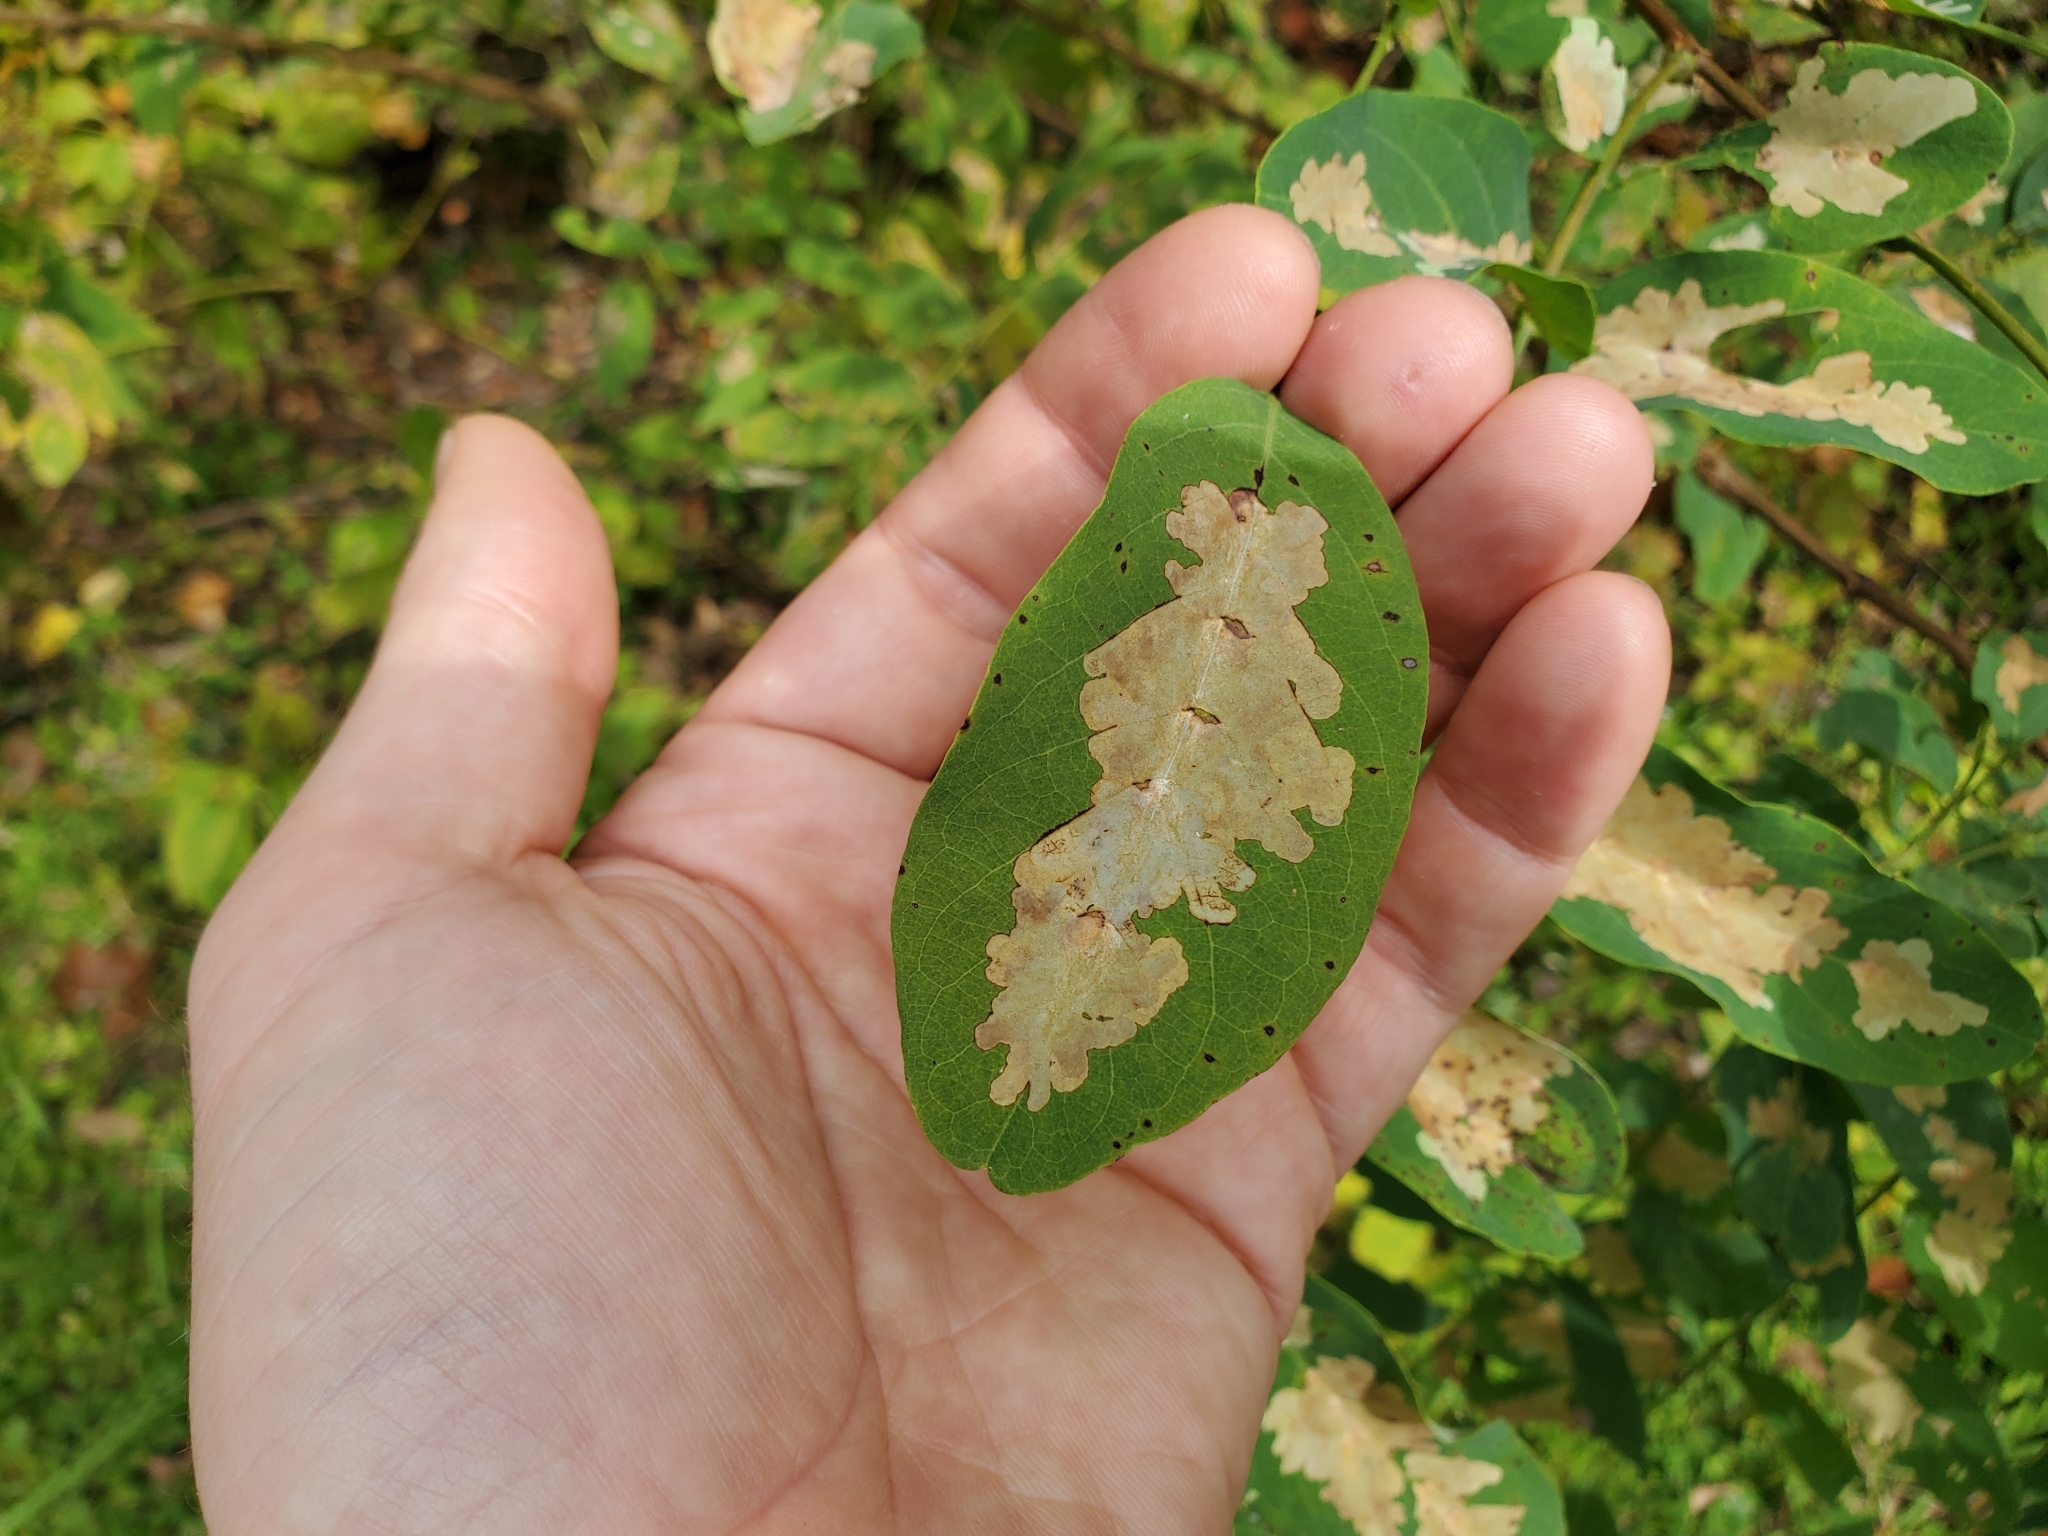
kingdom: Animalia
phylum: Arthropoda
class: Insecta
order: Lepidoptera
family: Gracillariidae
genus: Parectopa
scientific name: Parectopa robiniella
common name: Locust digitate leafminer
